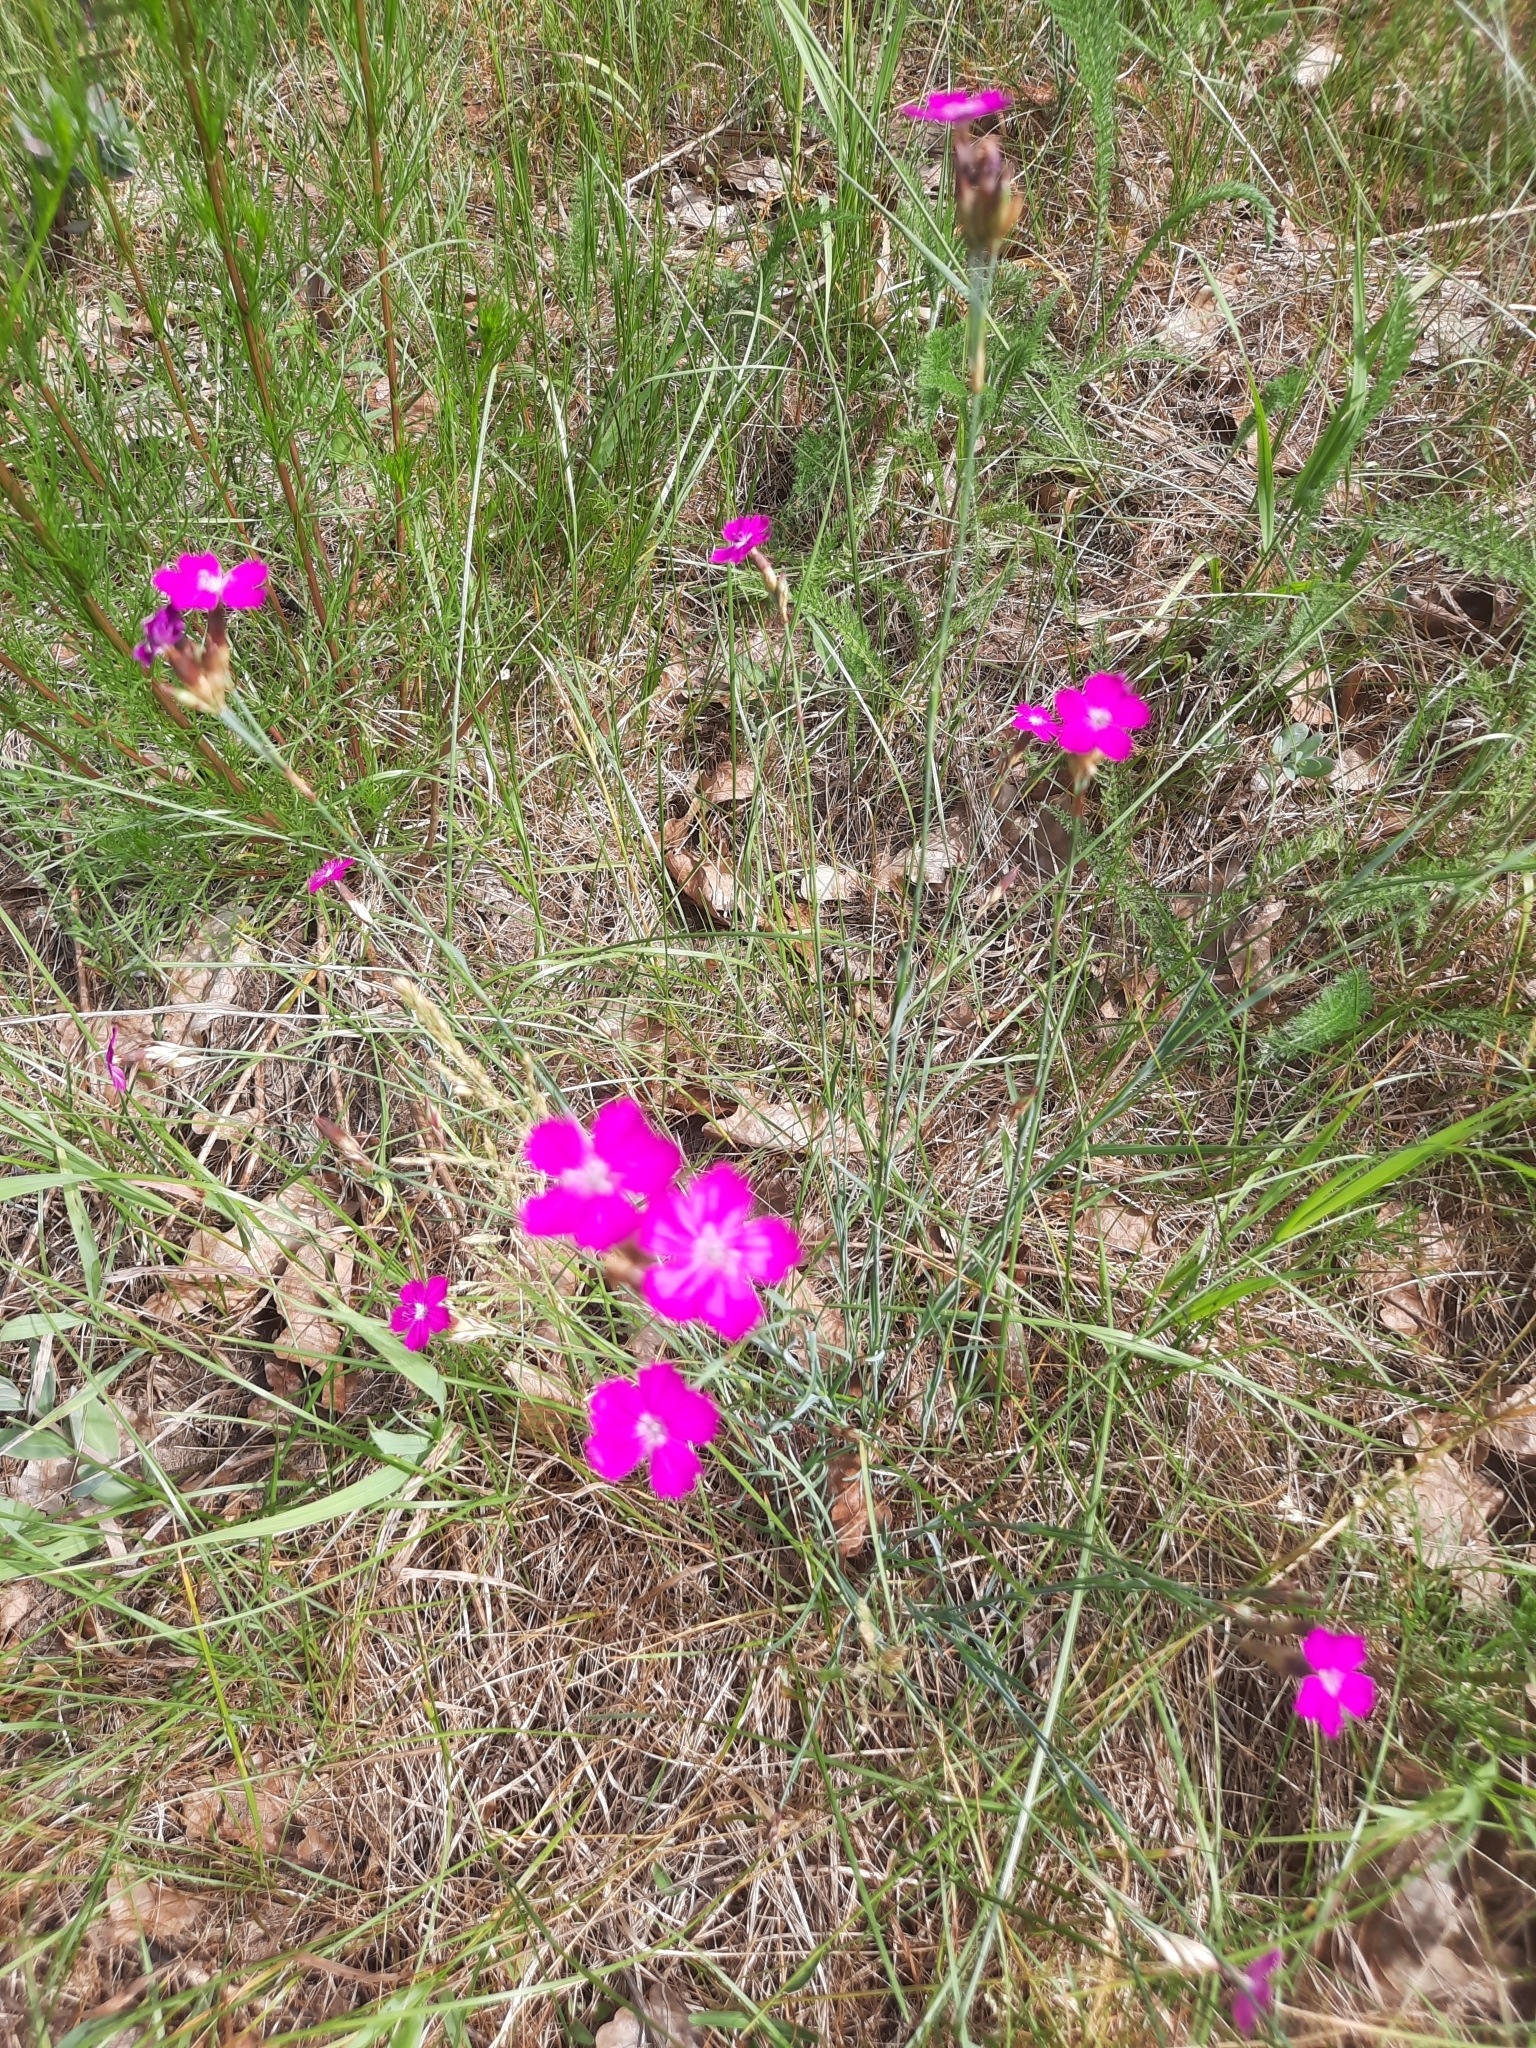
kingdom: Plantae
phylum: Tracheophyta
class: Magnoliopsida
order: Caryophyllales
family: Caryophyllaceae
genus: Dianthus
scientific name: Dianthus borbasii
